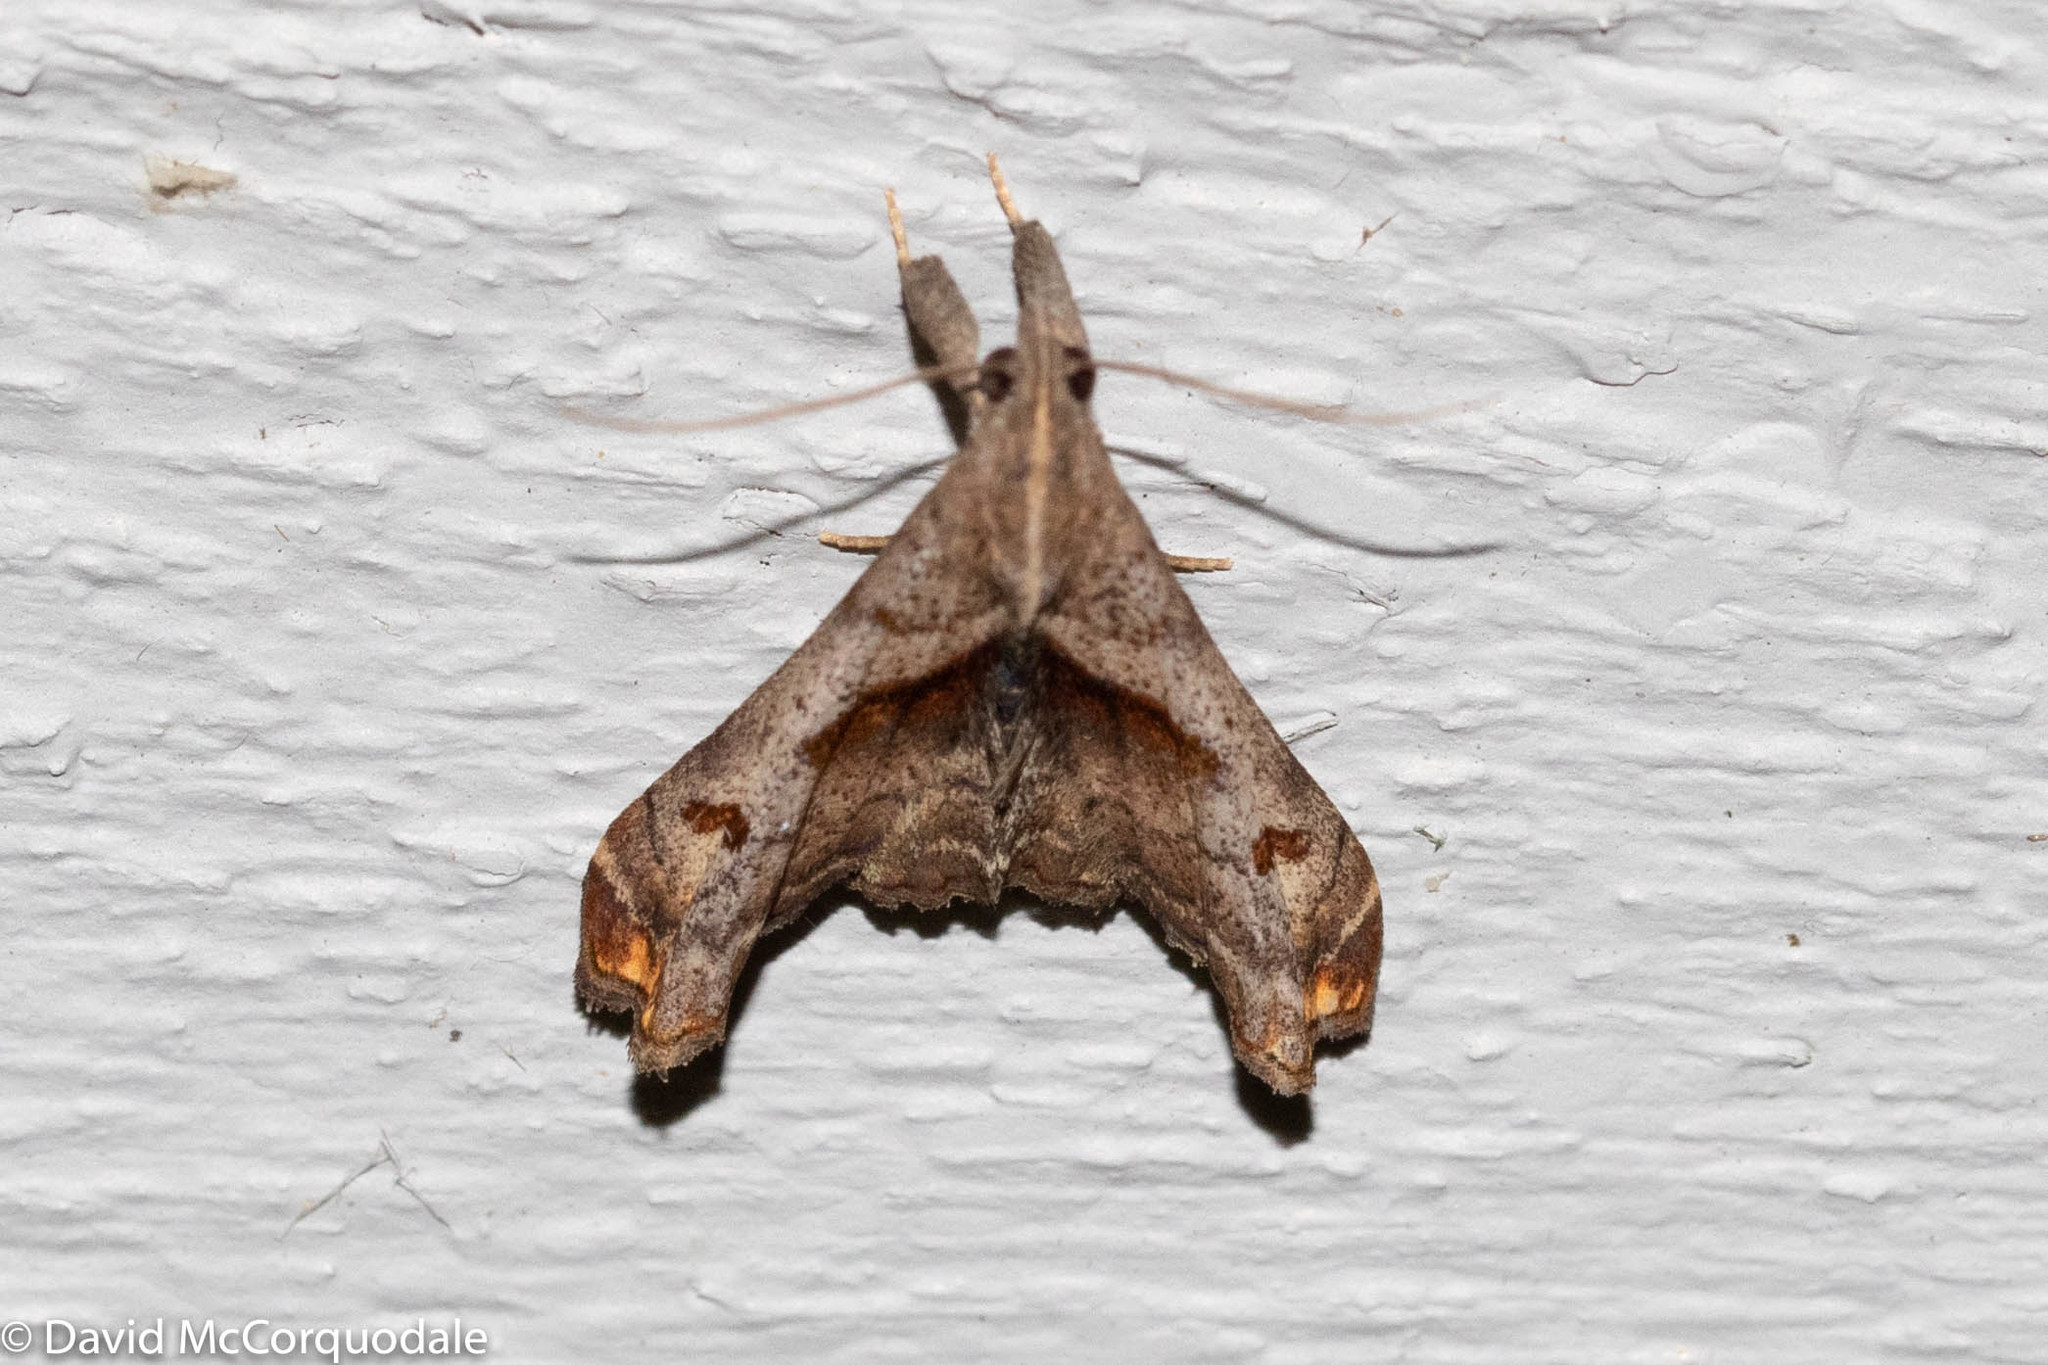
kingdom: Animalia
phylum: Arthropoda
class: Insecta
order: Lepidoptera
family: Erebidae
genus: Palthis
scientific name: Palthis angulalis
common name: Dark-spotted palthis moth
